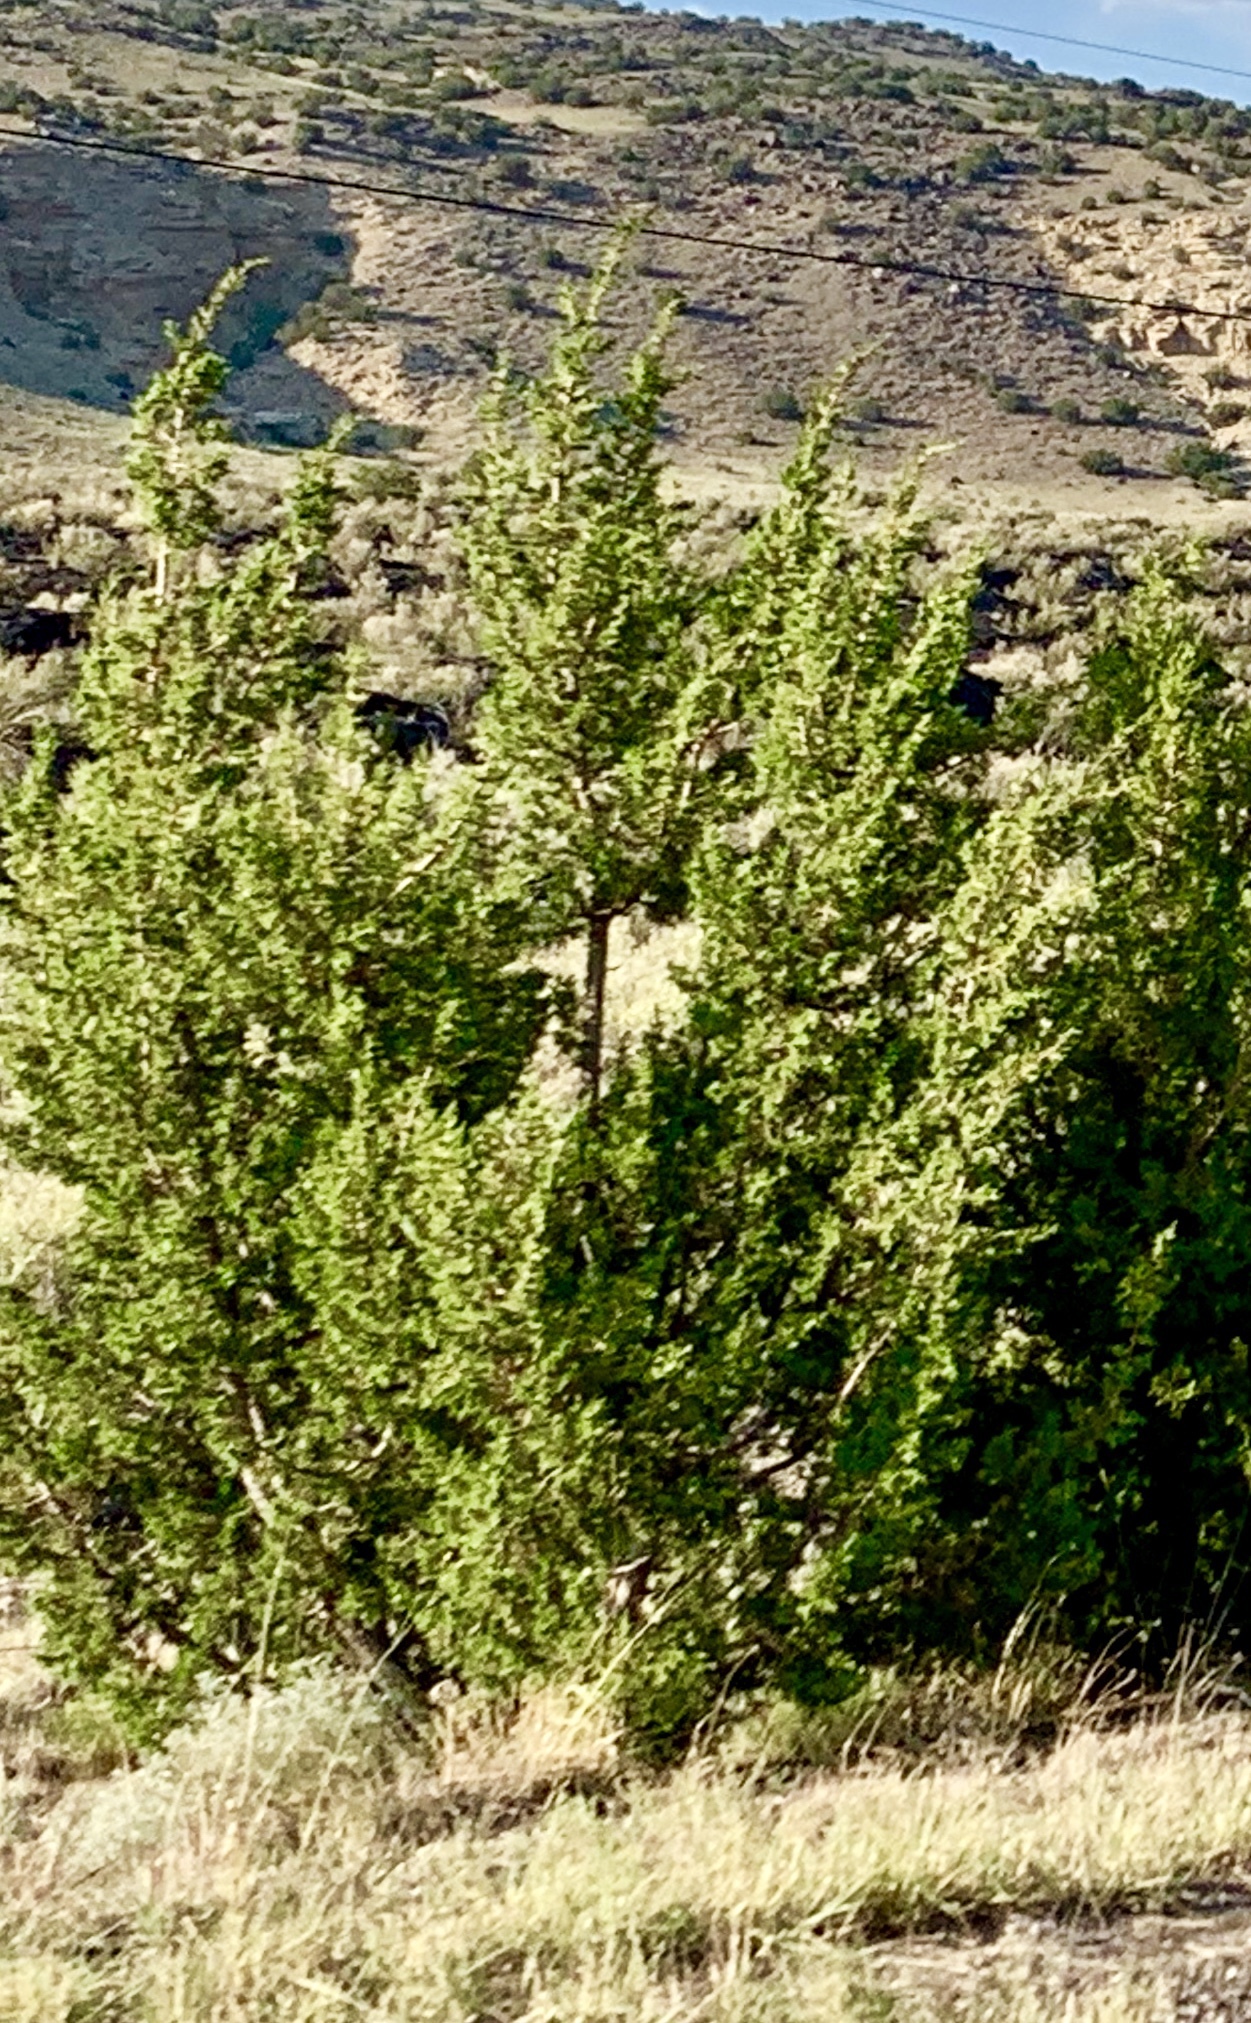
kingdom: Plantae
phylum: Tracheophyta
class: Pinopsida
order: Pinales
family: Cupressaceae
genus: Juniperus
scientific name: Juniperus monosperma
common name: One-seed juniper
